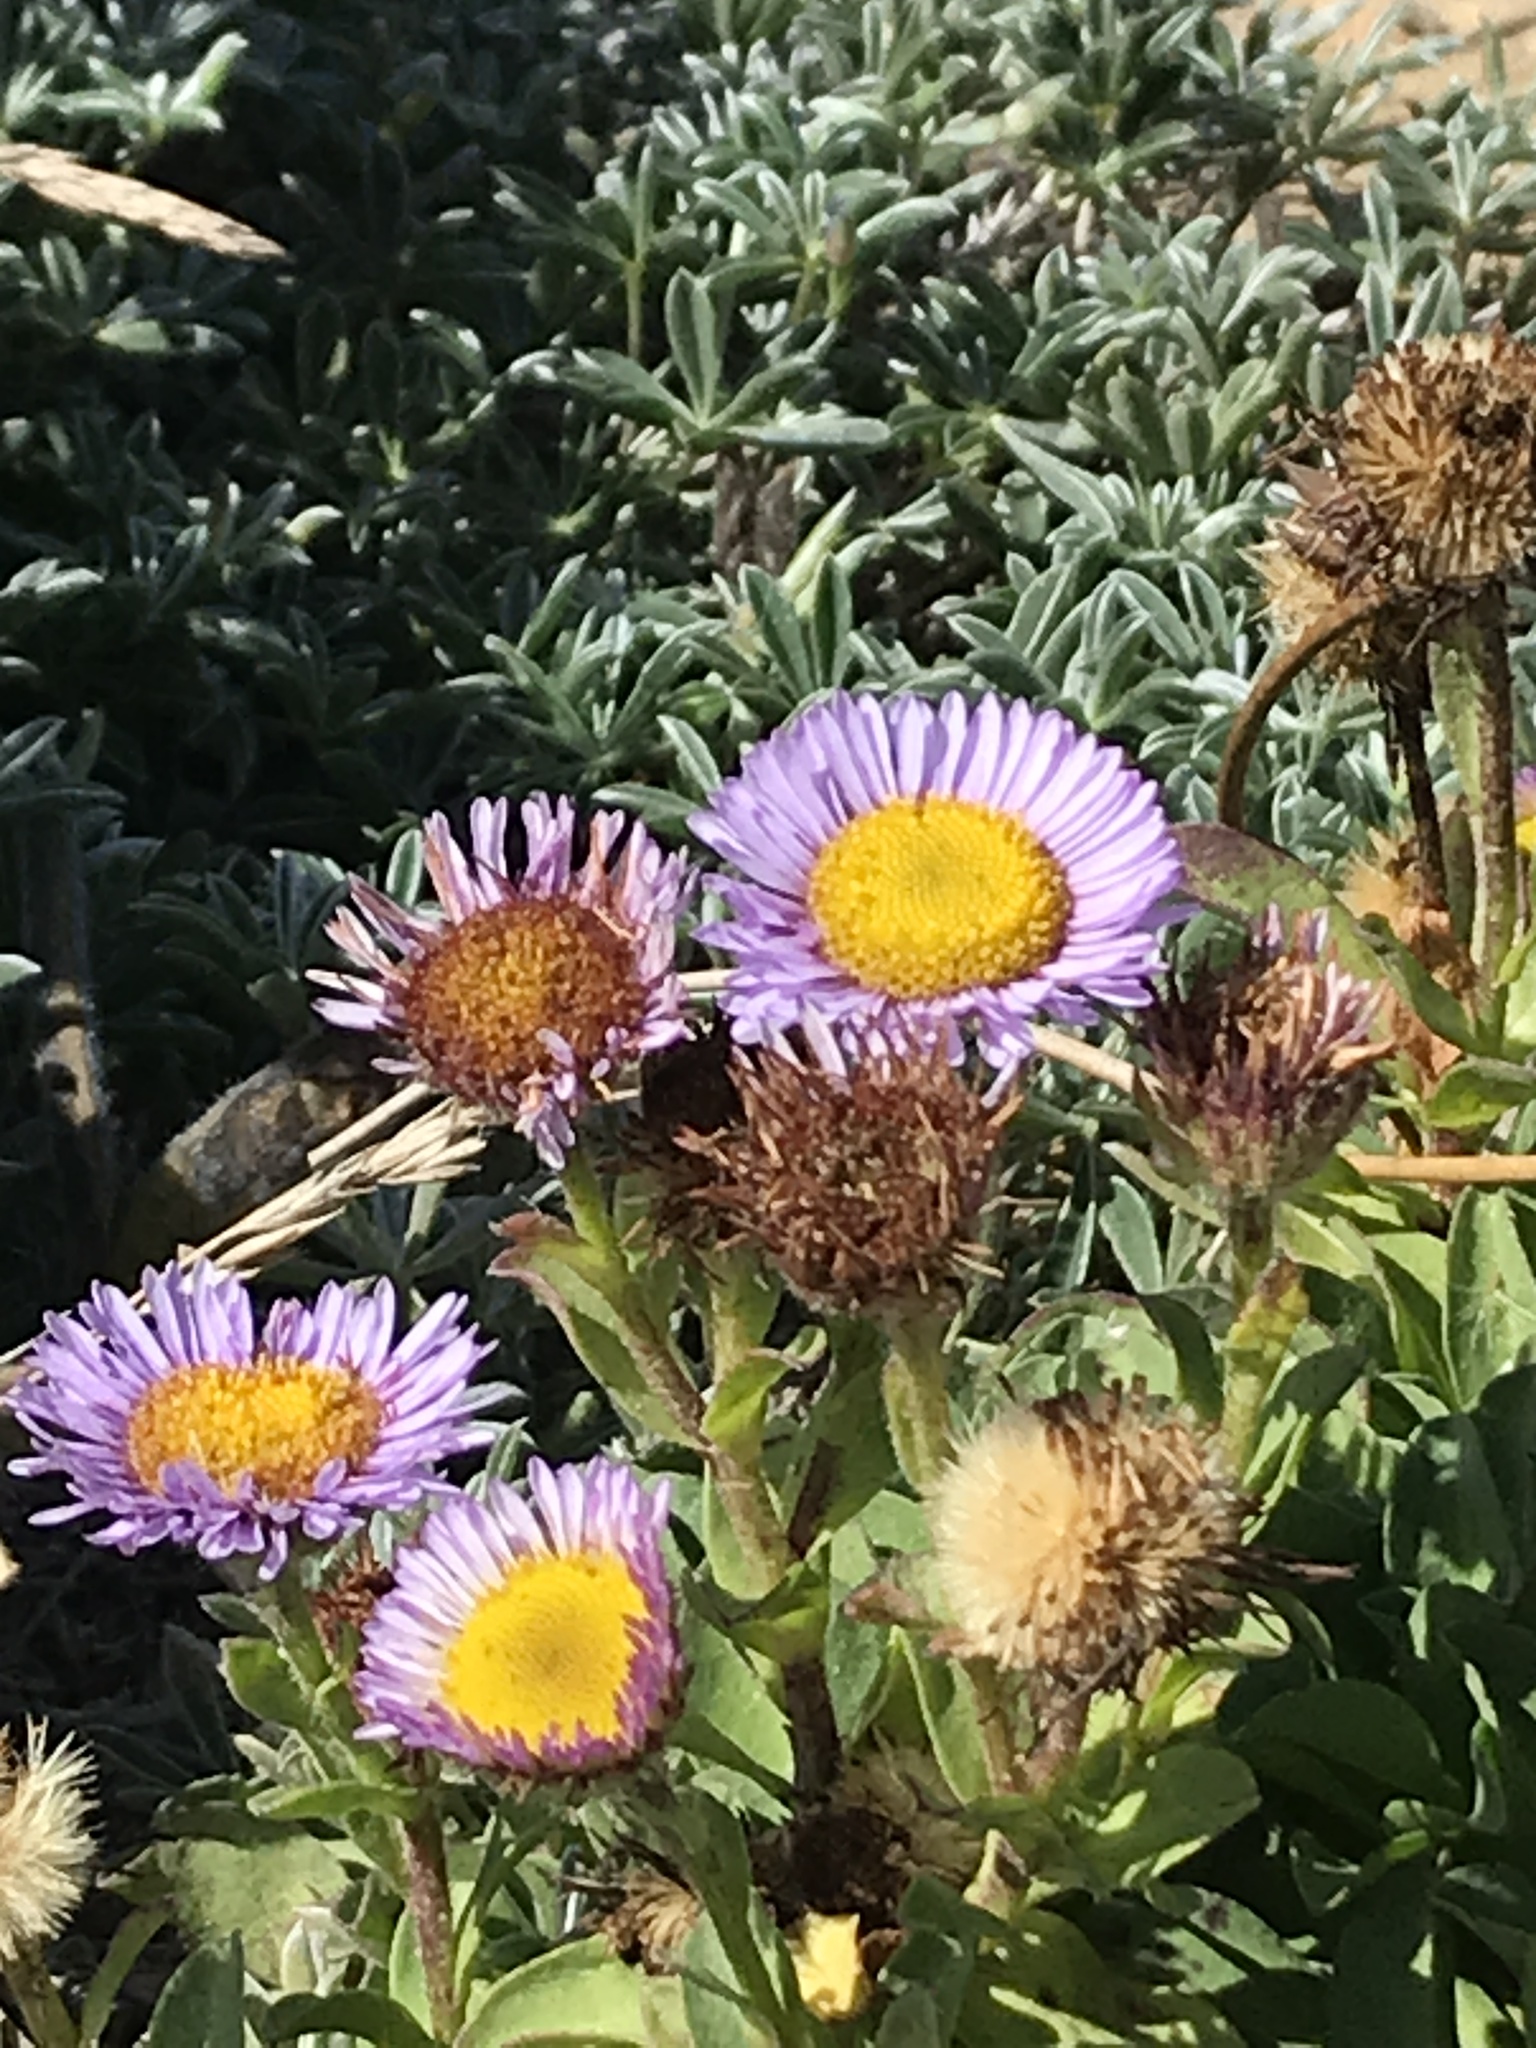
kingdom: Plantae
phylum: Tracheophyta
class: Magnoliopsida
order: Asterales
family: Asteraceae
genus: Erigeron
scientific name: Erigeron glaucus
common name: Seaside daisy
